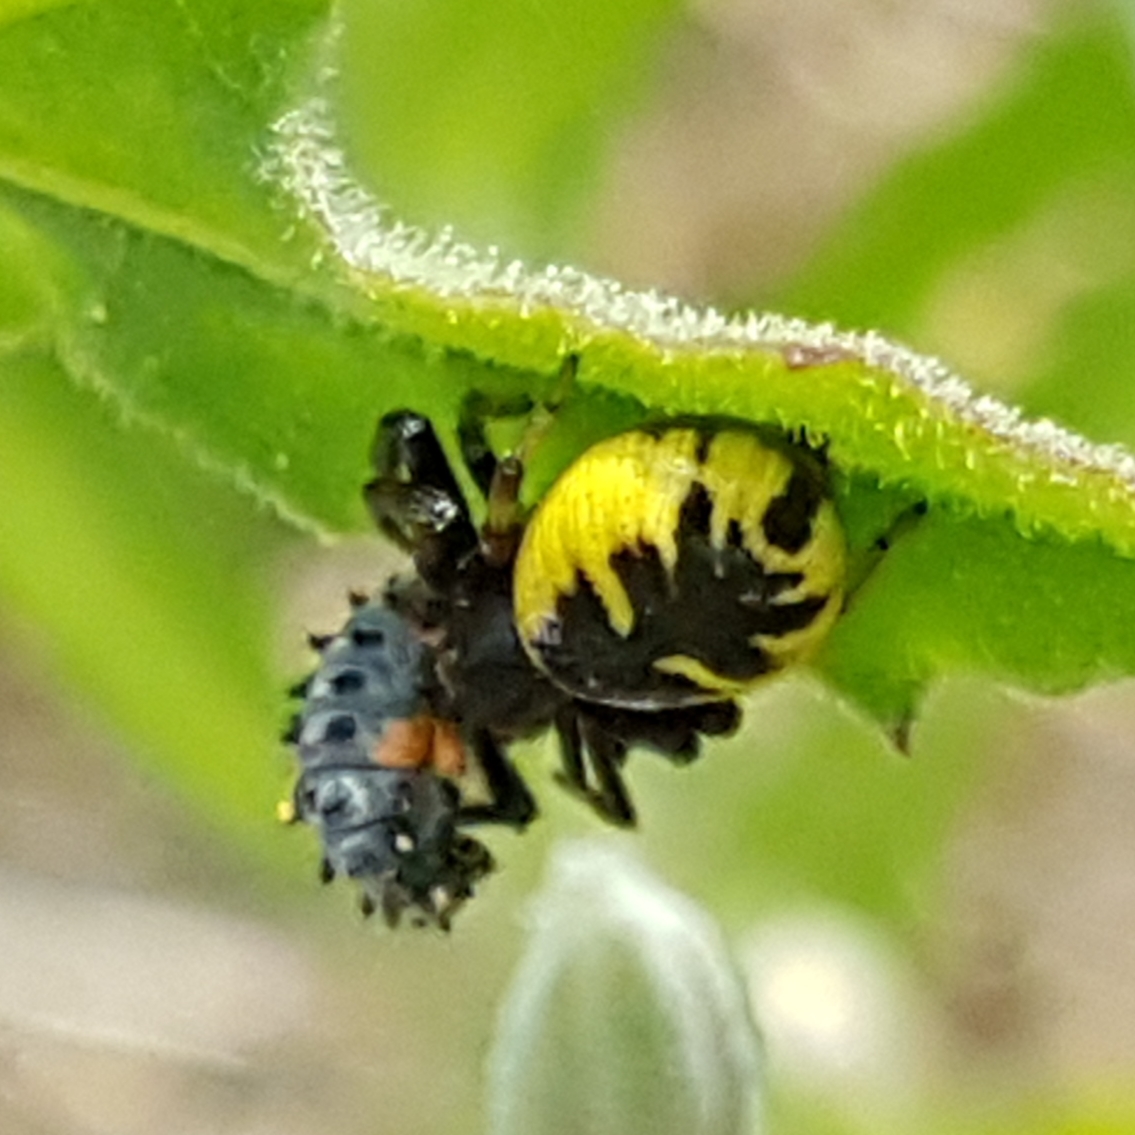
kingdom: Animalia
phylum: Arthropoda
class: Arachnida
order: Araneae
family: Thomisidae
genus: Synema
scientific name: Synema globosum
